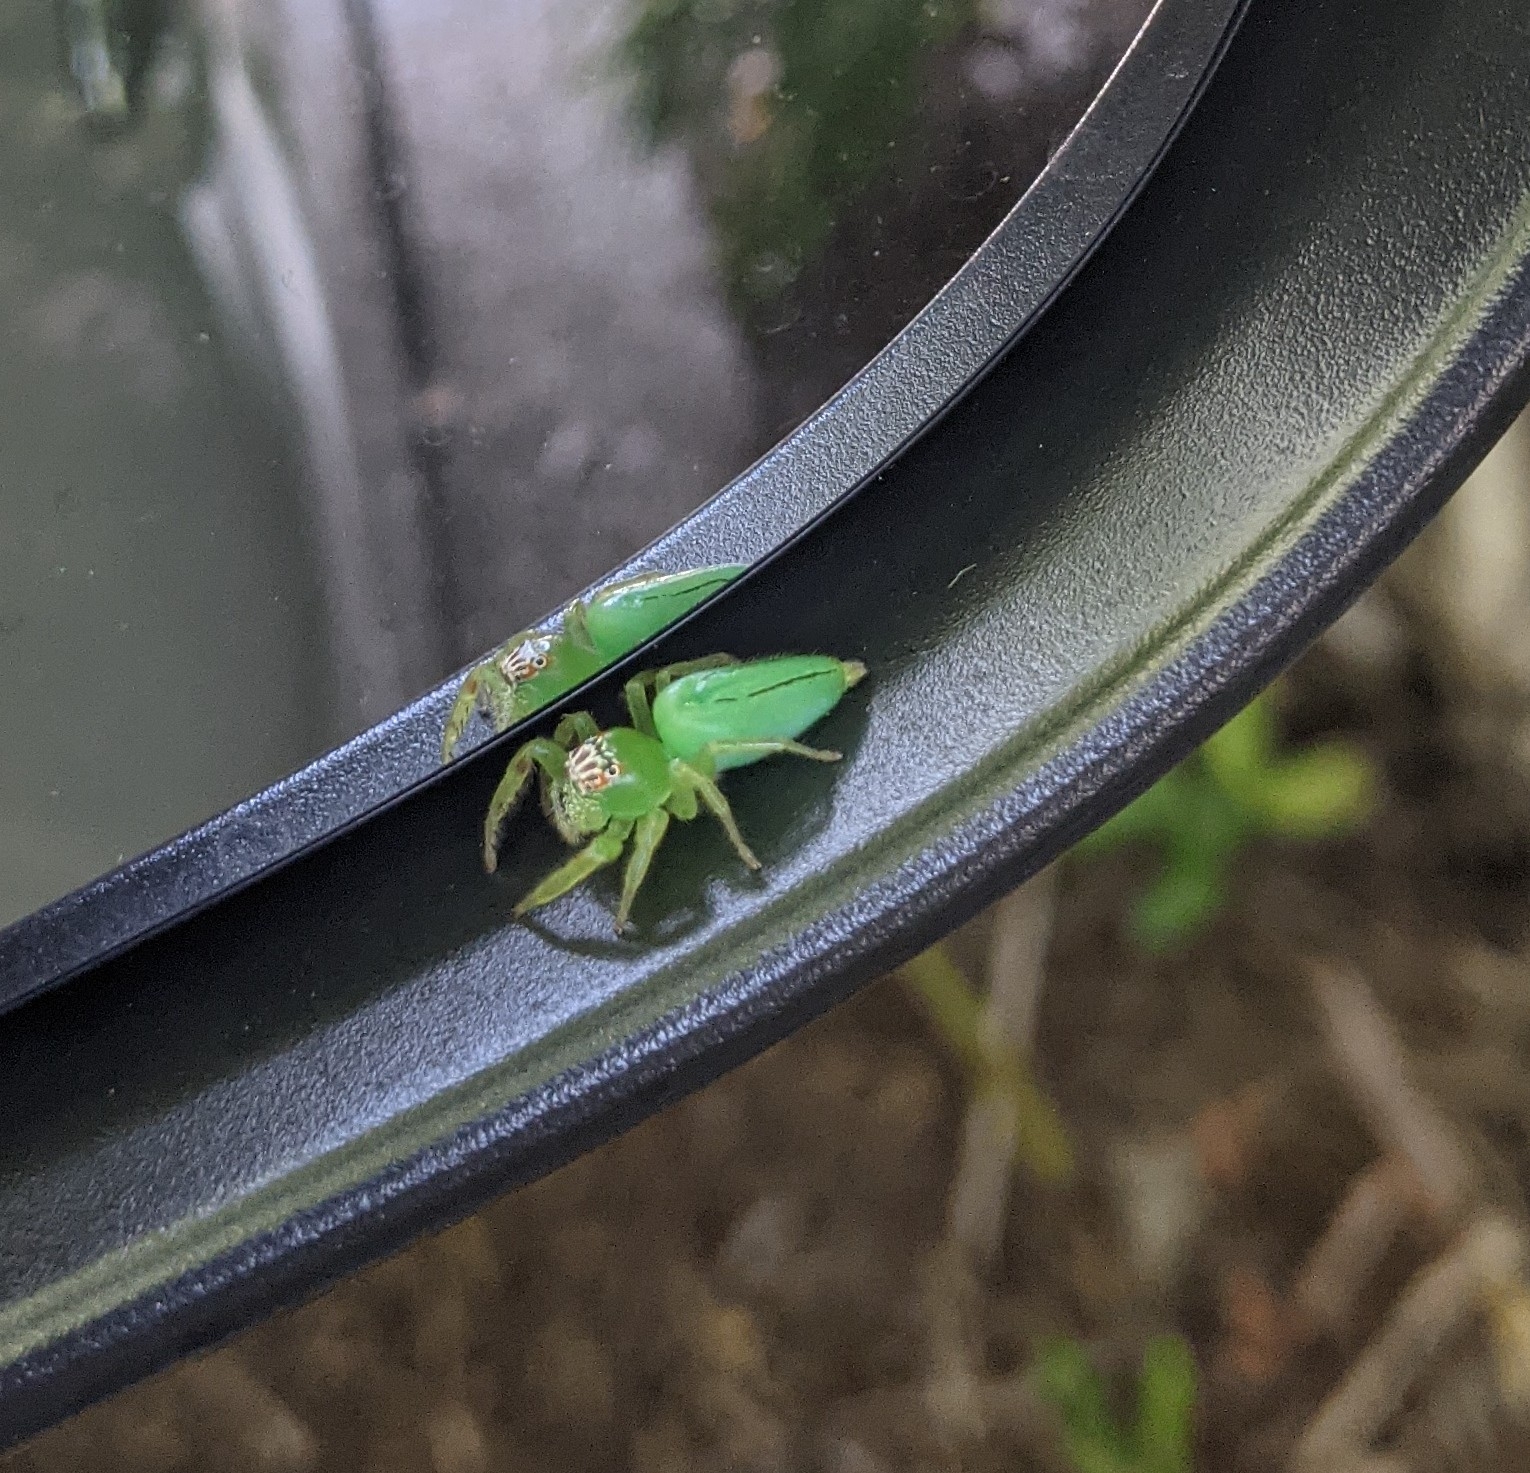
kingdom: Animalia
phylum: Arthropoda
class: Arachnida
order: Araneae
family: Salticidae
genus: Mopsus
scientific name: Mopsus mormon
